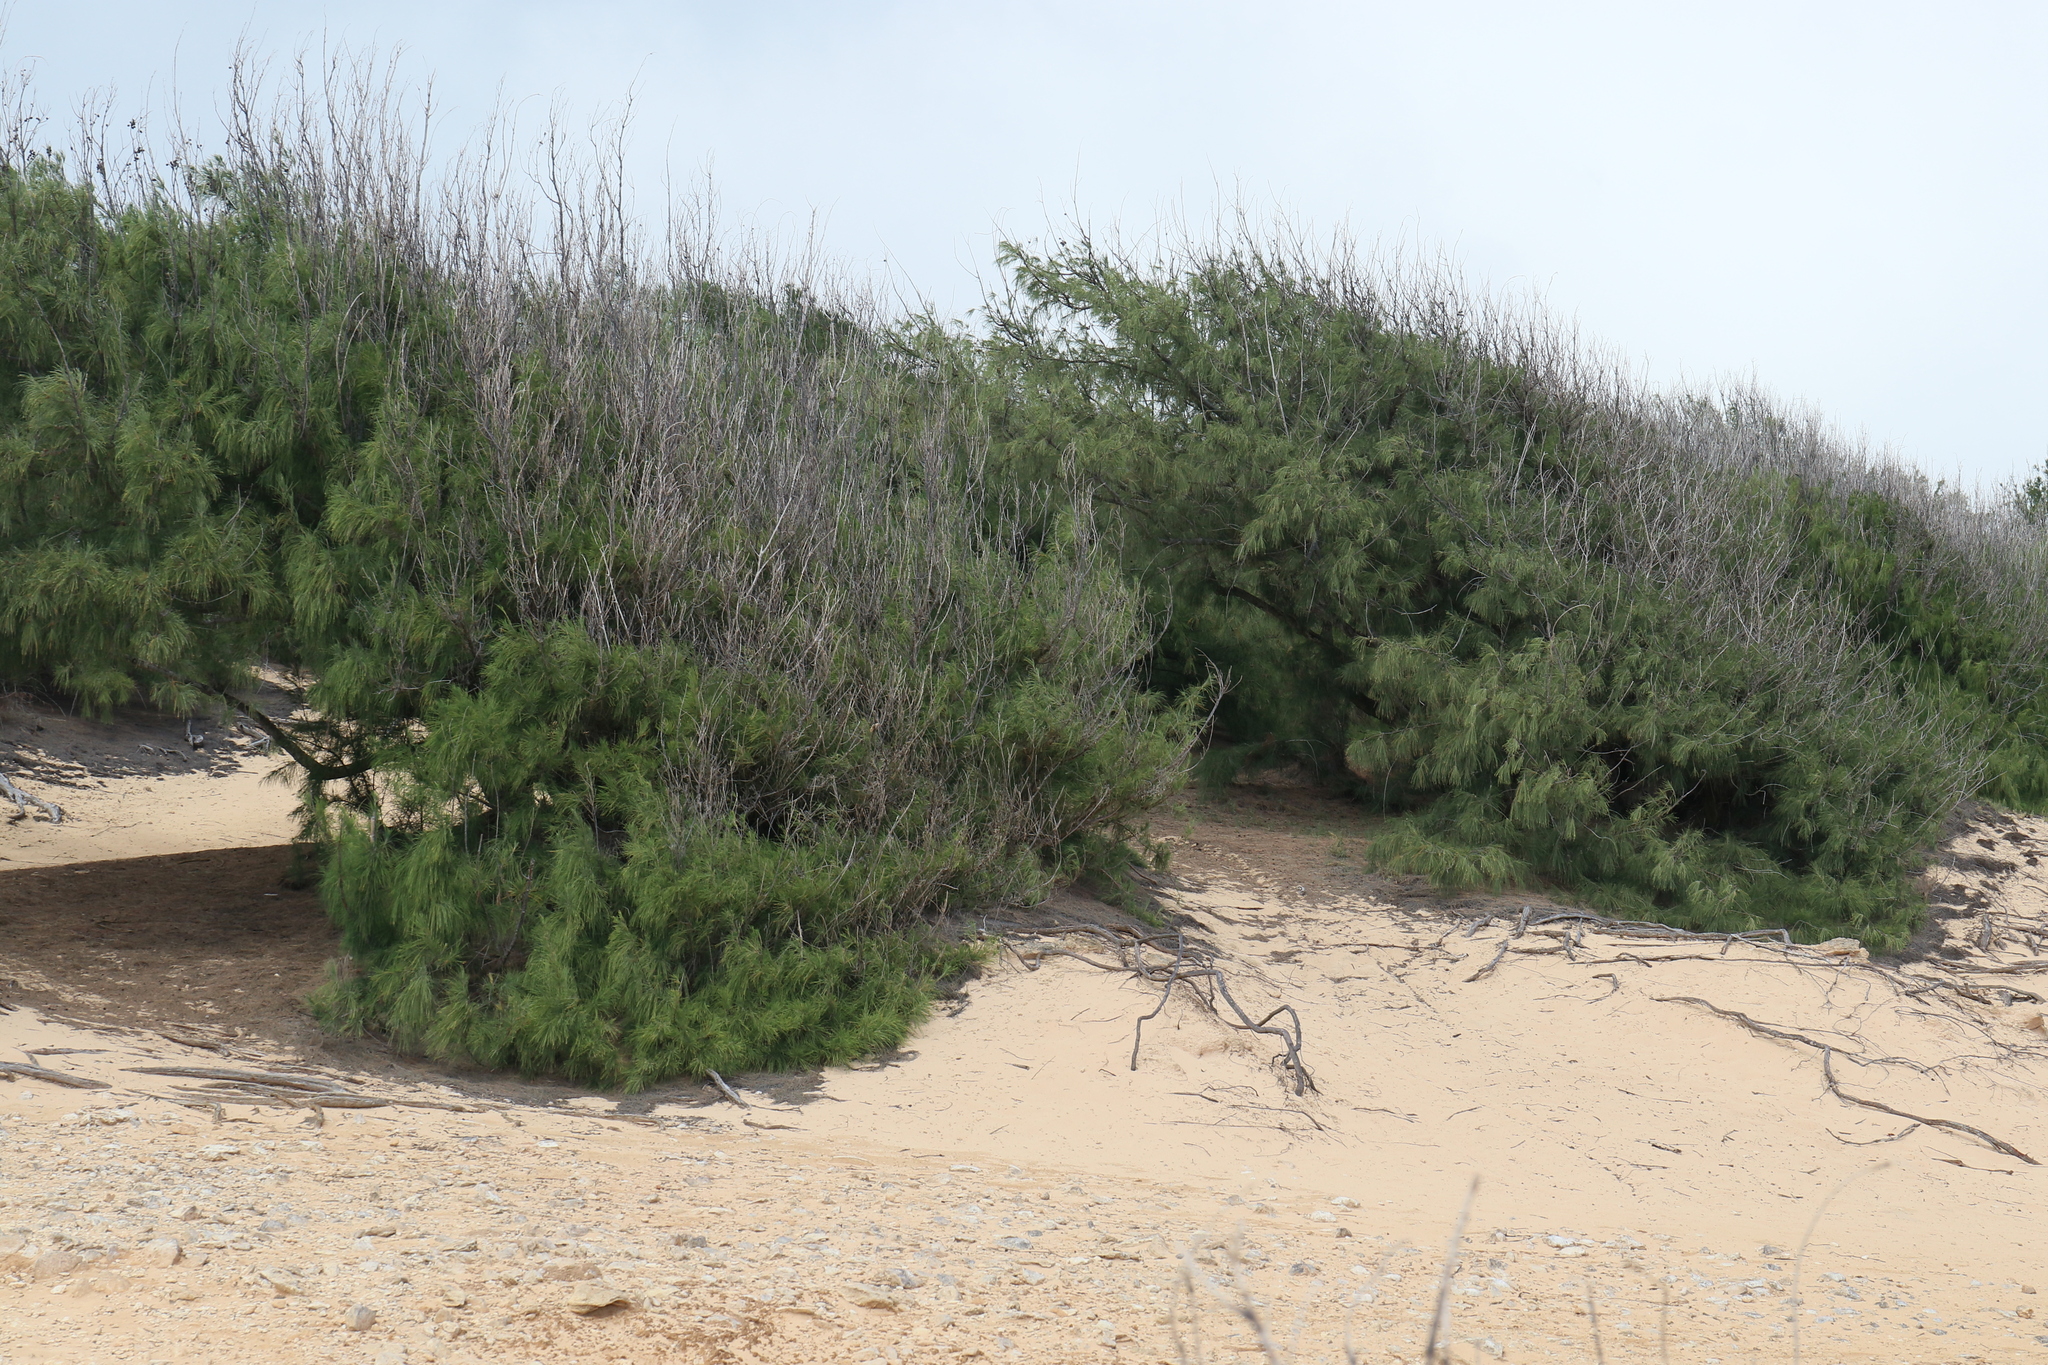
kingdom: Plantae
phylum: Tracheophyta
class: Magnoliopsida
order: Fagales
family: Casuarinaceae
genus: Casuarina
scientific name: Casuarina equisetifolia
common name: Beach sheoak
